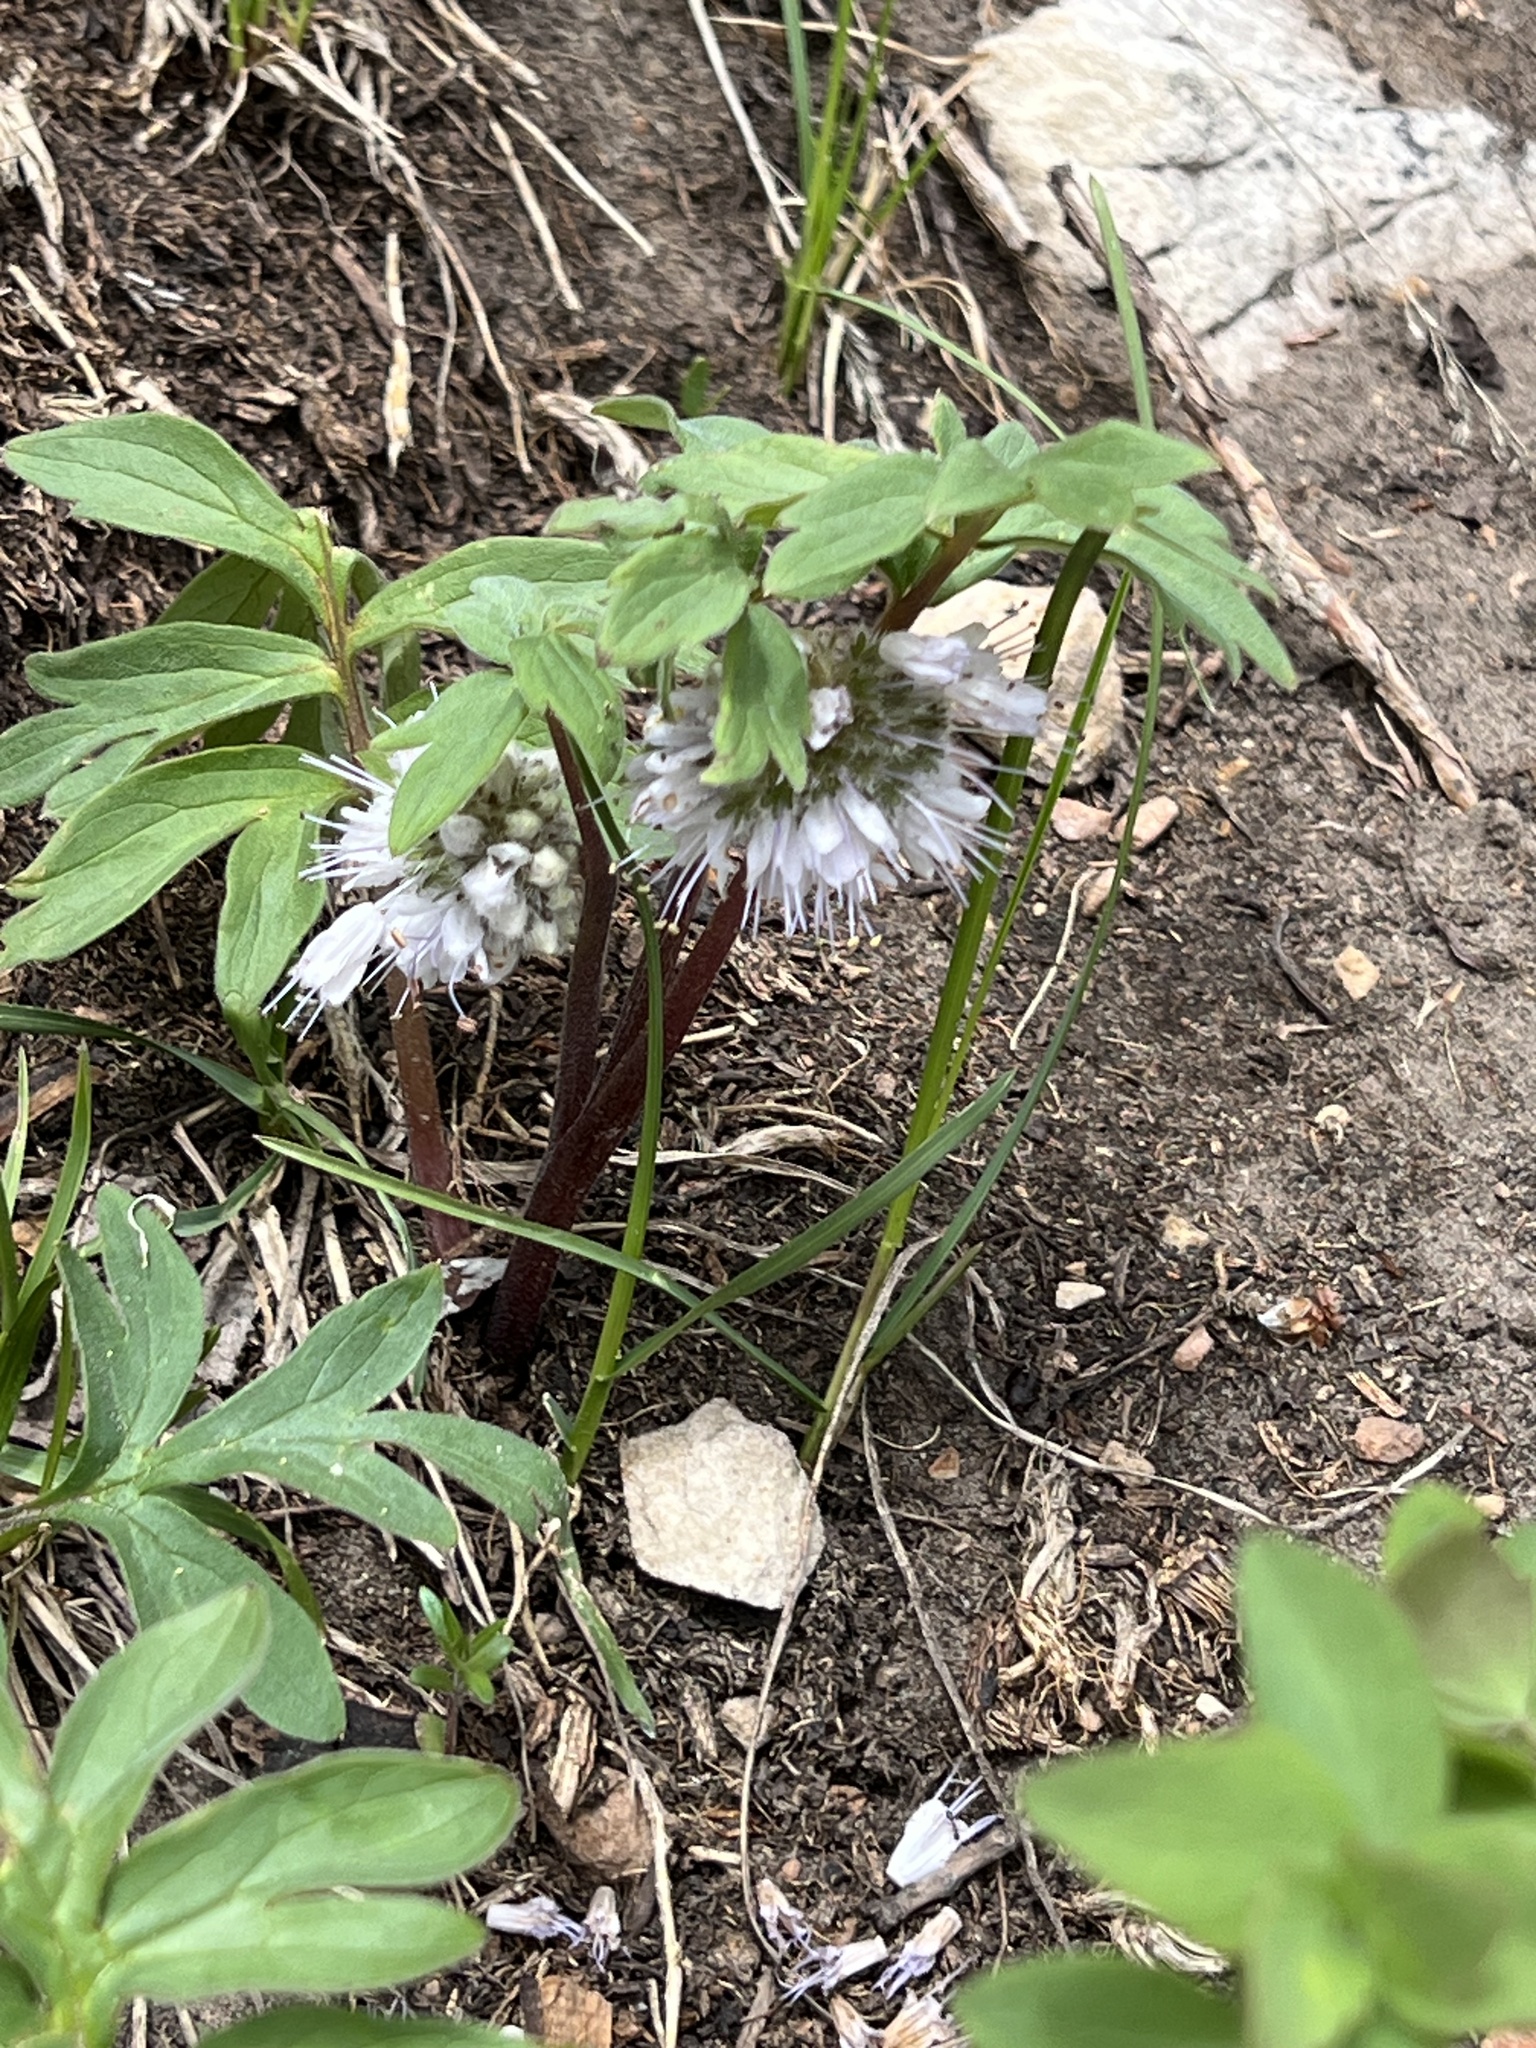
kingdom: Plantae
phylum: Tracheophyta
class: Magnoliopsida
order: Boraginales
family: Hydrophyllaceae
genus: Hydrophyllum
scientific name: Hydrophyllum capitatum
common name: Woollen-breeches
